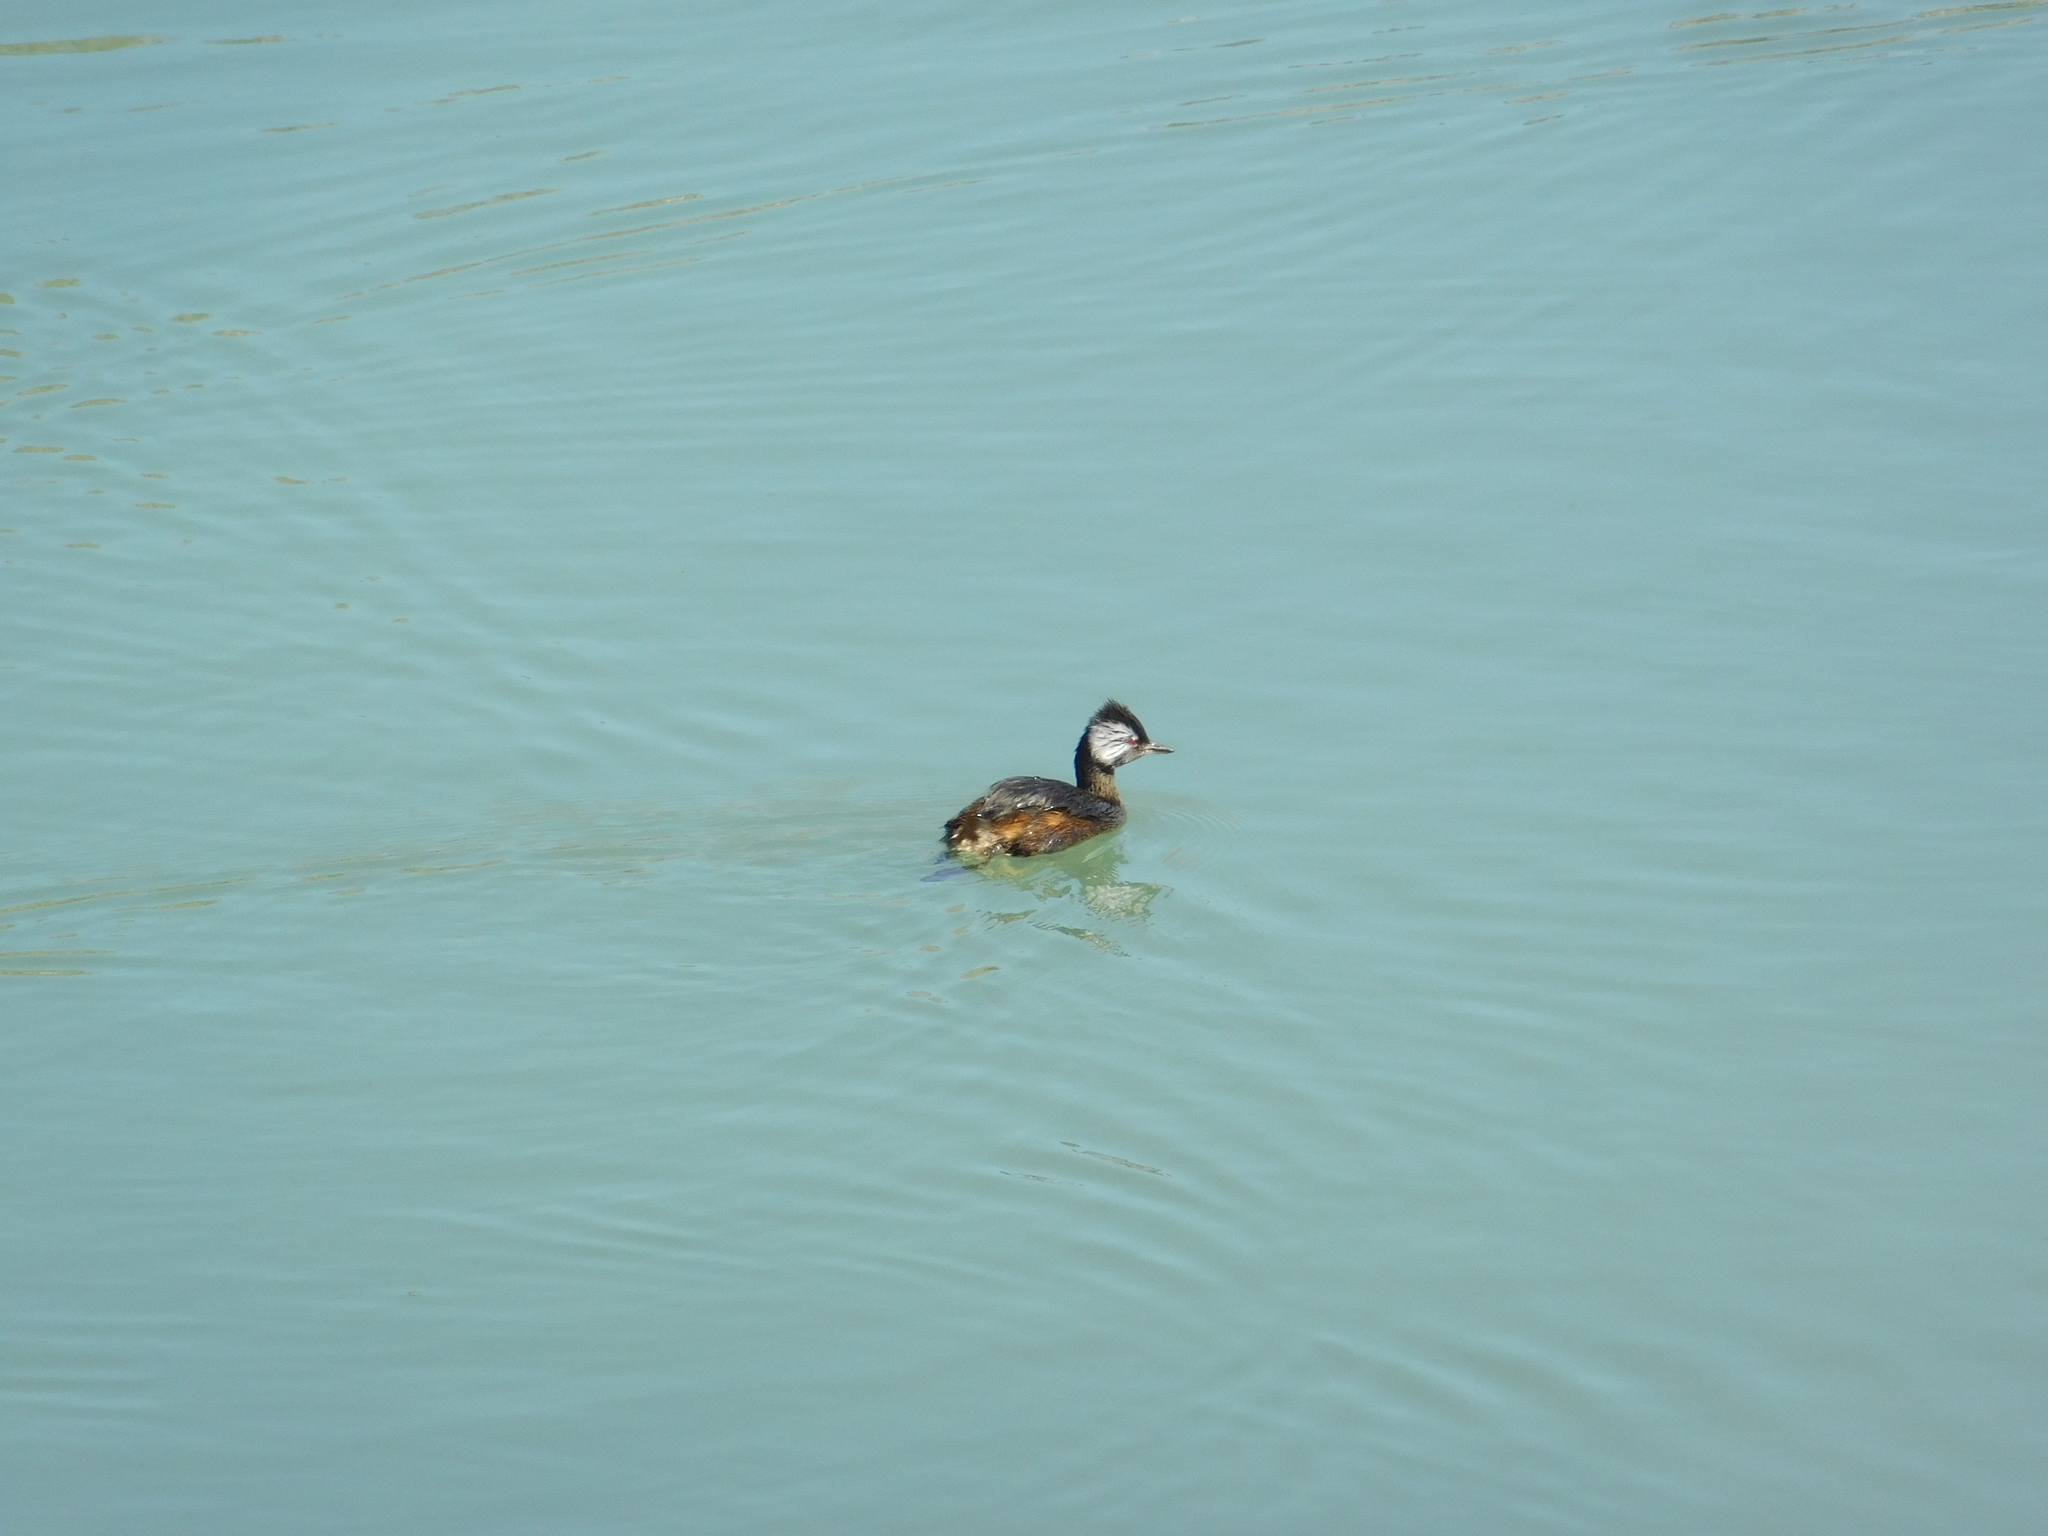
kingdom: Animalia
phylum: Chordata
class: Aves
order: Podicipediformes
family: Podicipedidae
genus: Rollandia
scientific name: Rollandia rolland
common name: White-tufted grebe
